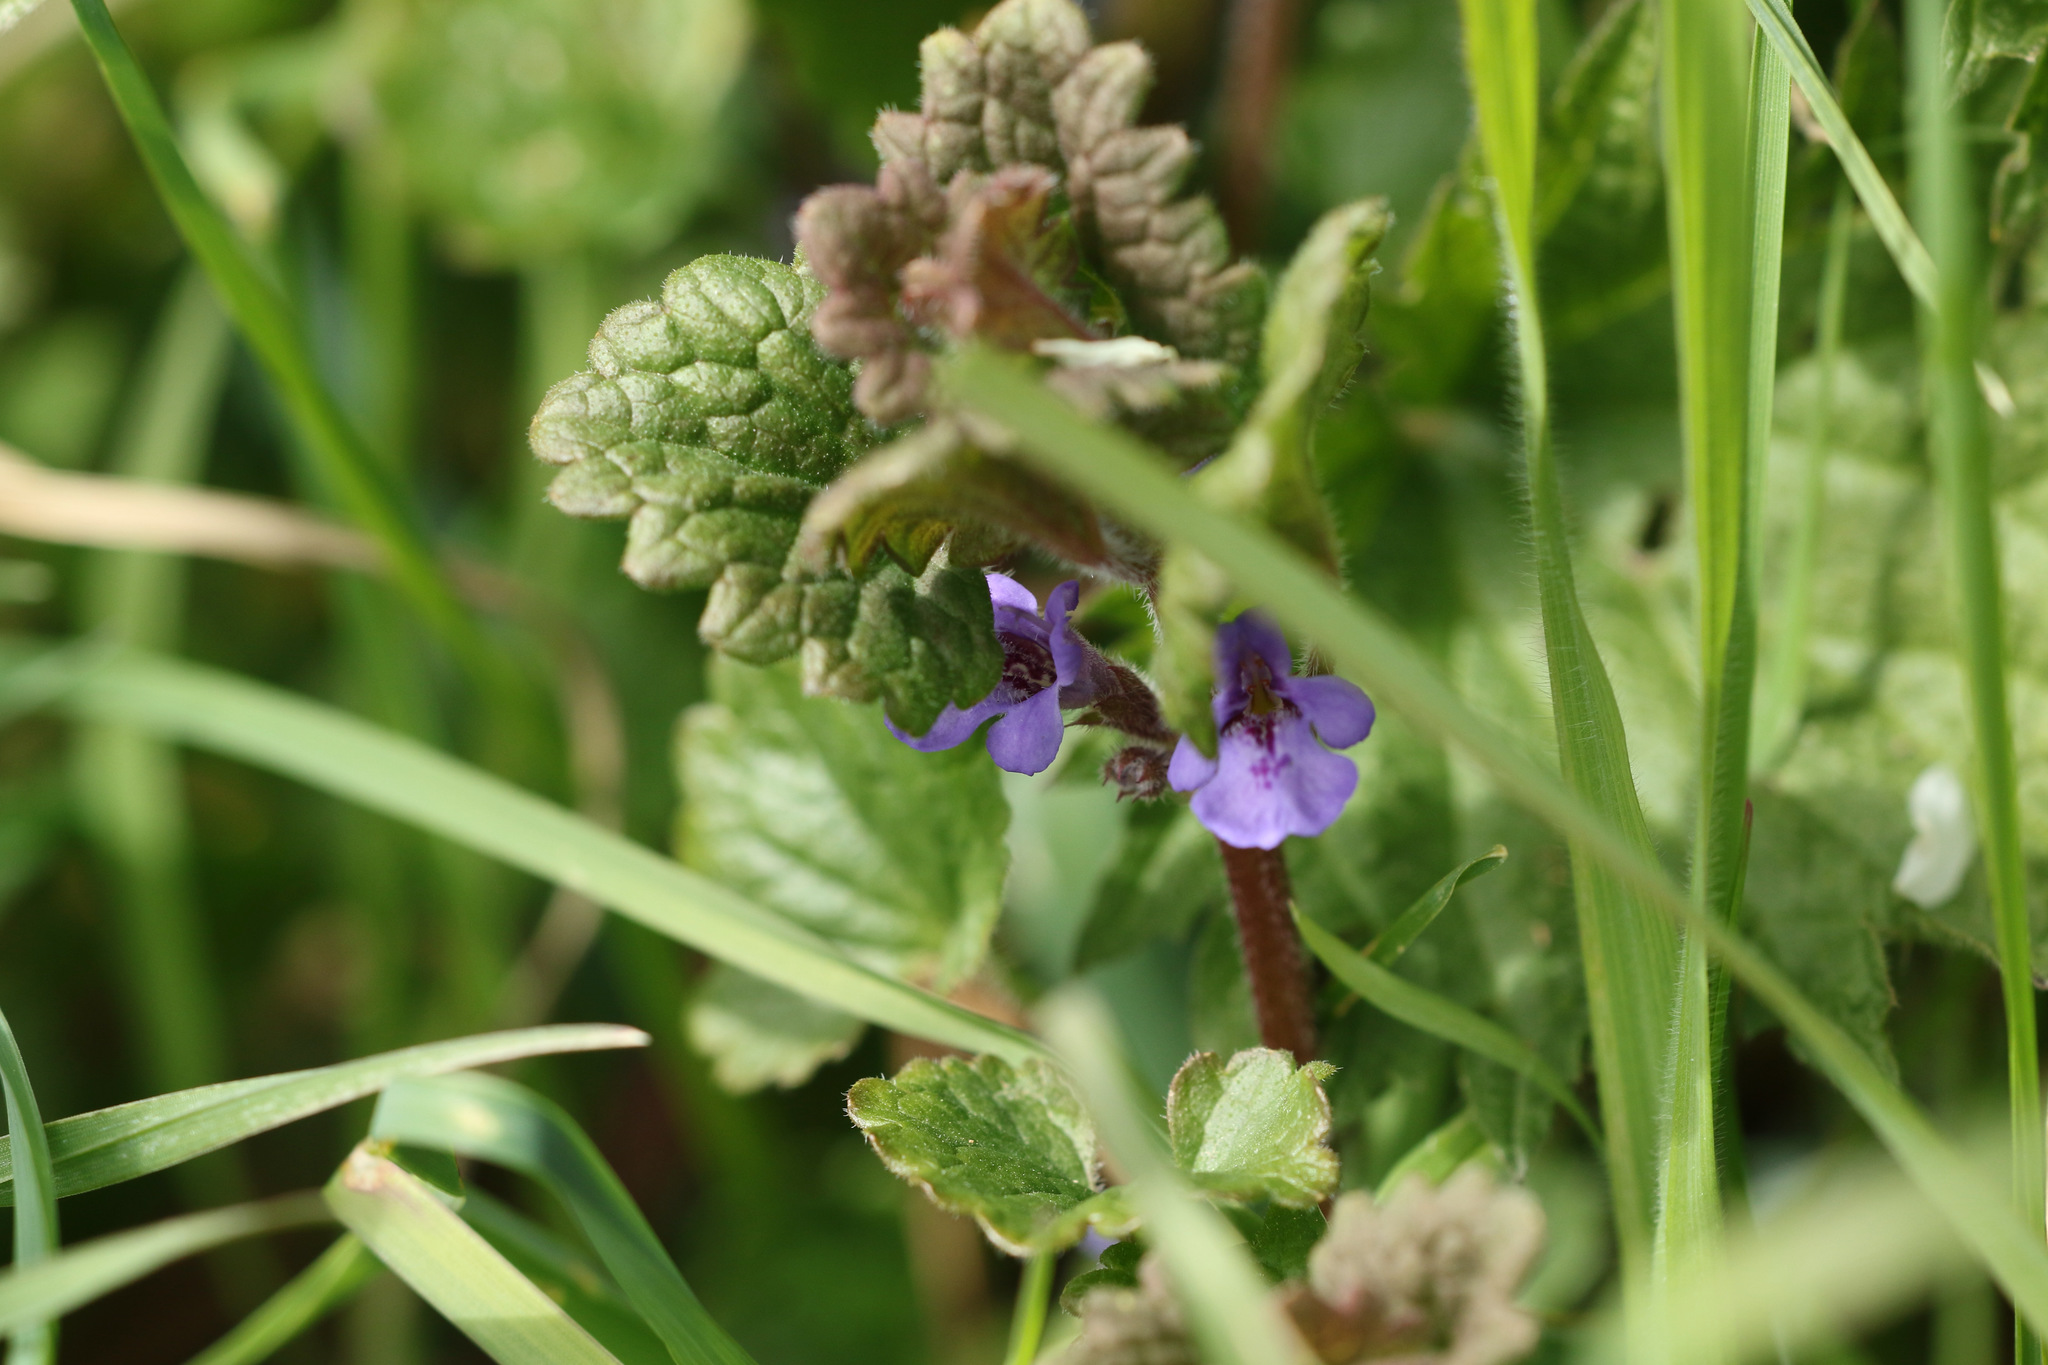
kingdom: Plantae
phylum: Tracheophyta
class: Magnoliopsida
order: Lamiales
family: Lamiaceae
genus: Glechoma
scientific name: Glechoma hederacea
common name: Ground ivy
